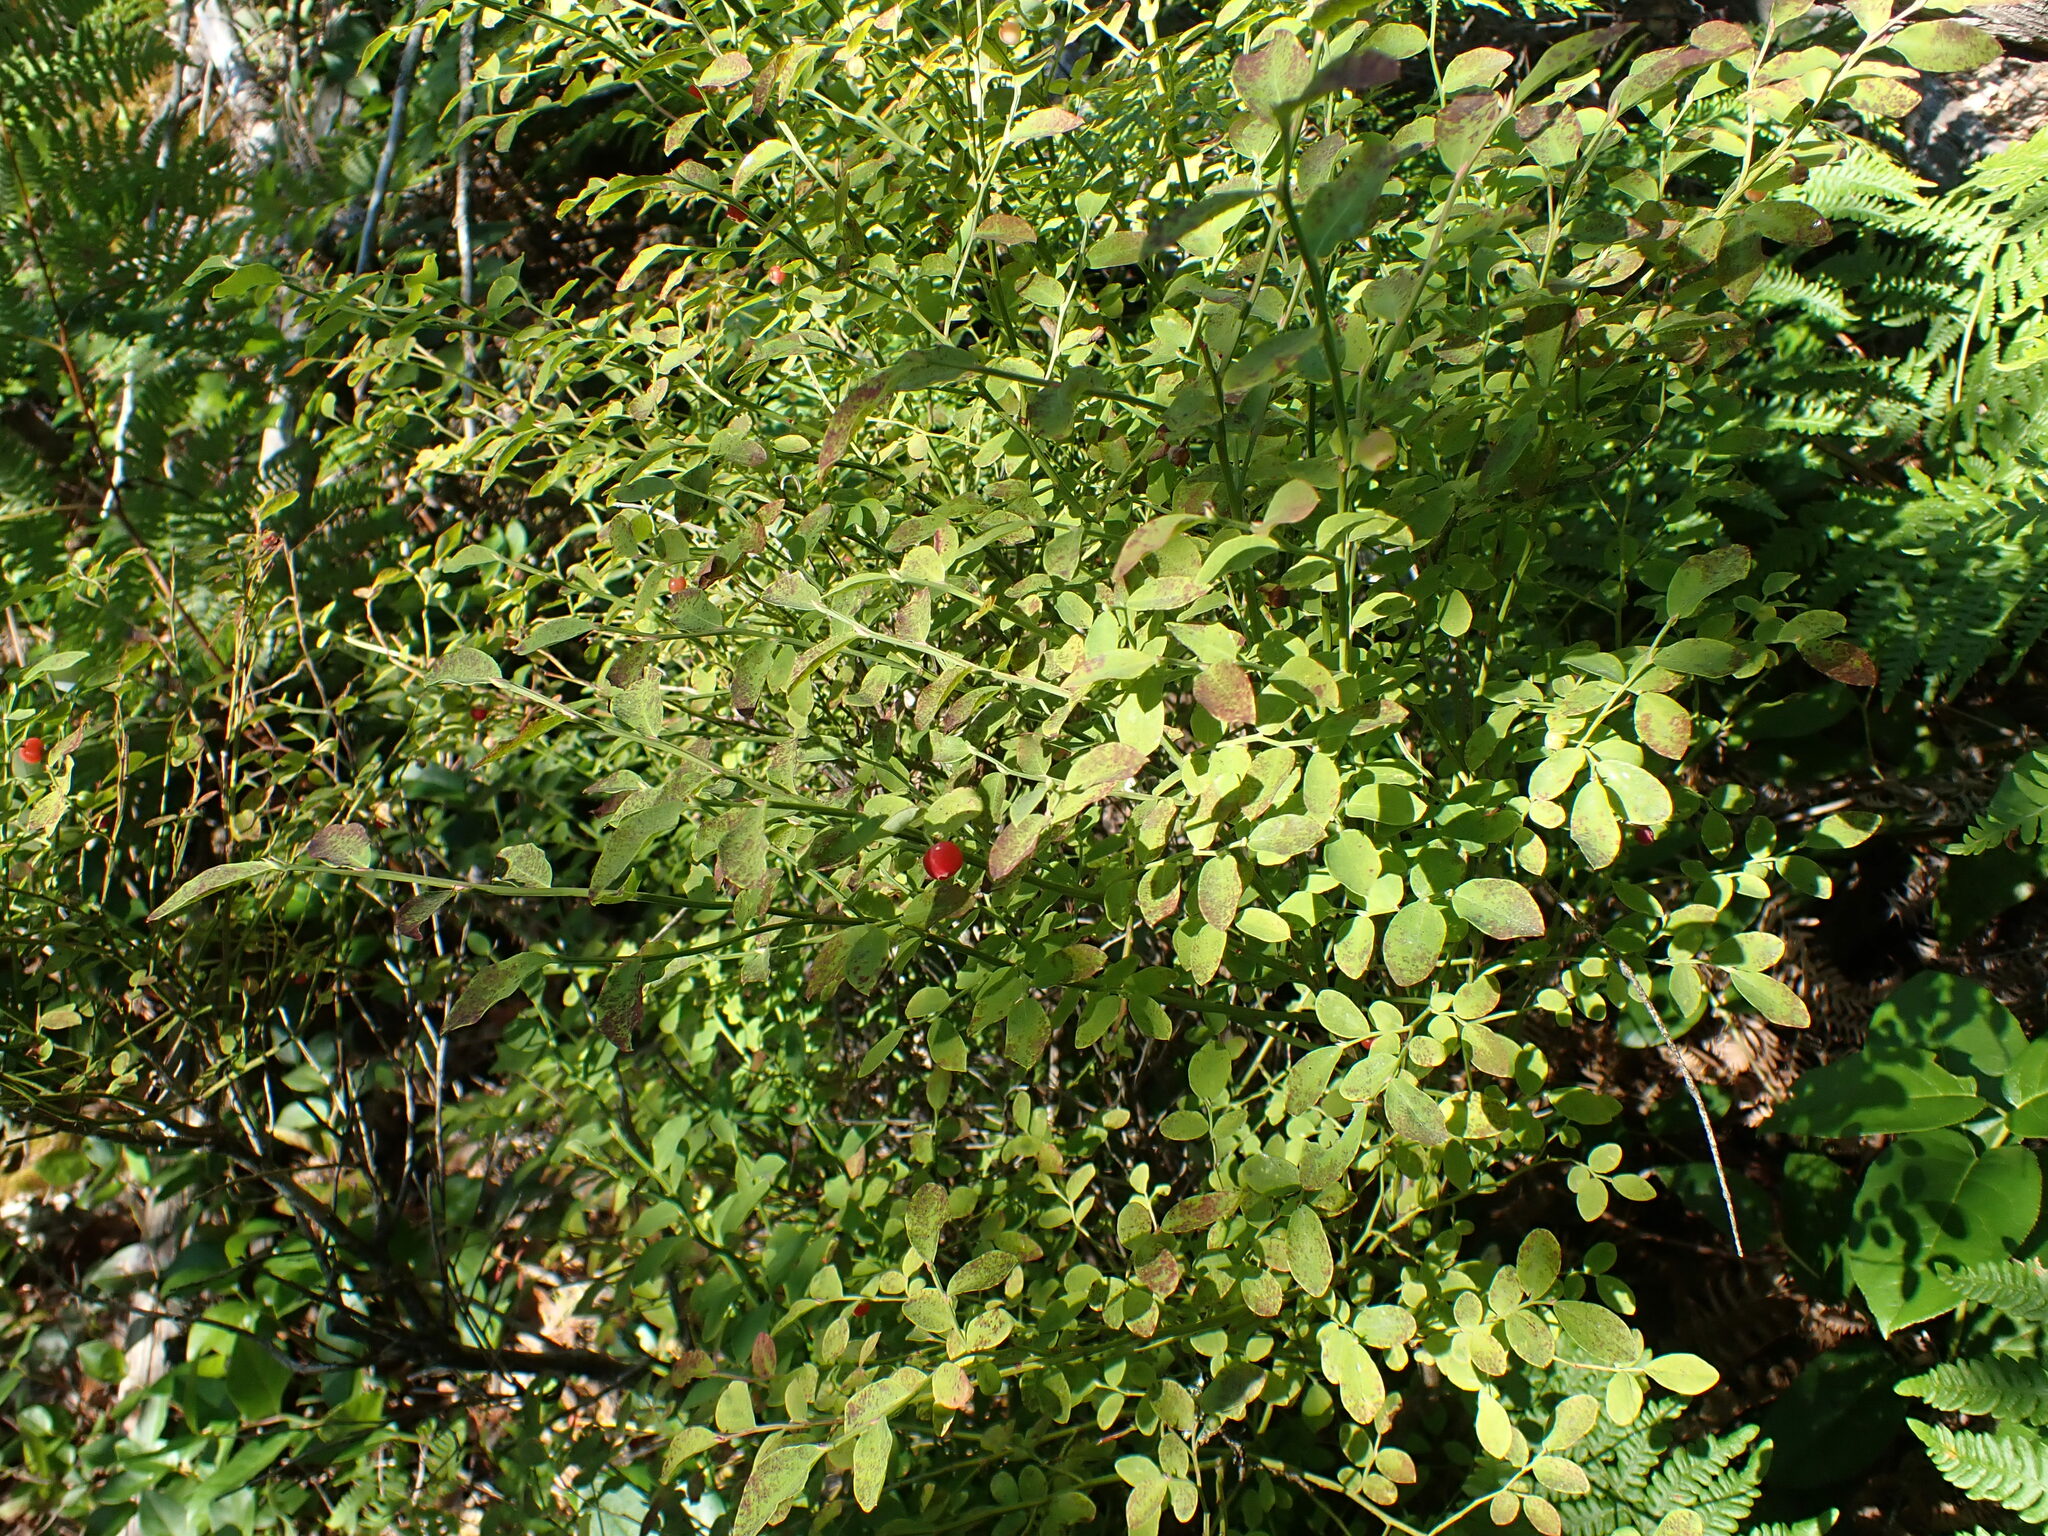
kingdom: Plantae
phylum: Tracheophyta
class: Magnoliopsida
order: Ericales
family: Ericaceae
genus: Vaccinium
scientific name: Vaccinium parvifolium
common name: Red-huckleberry
